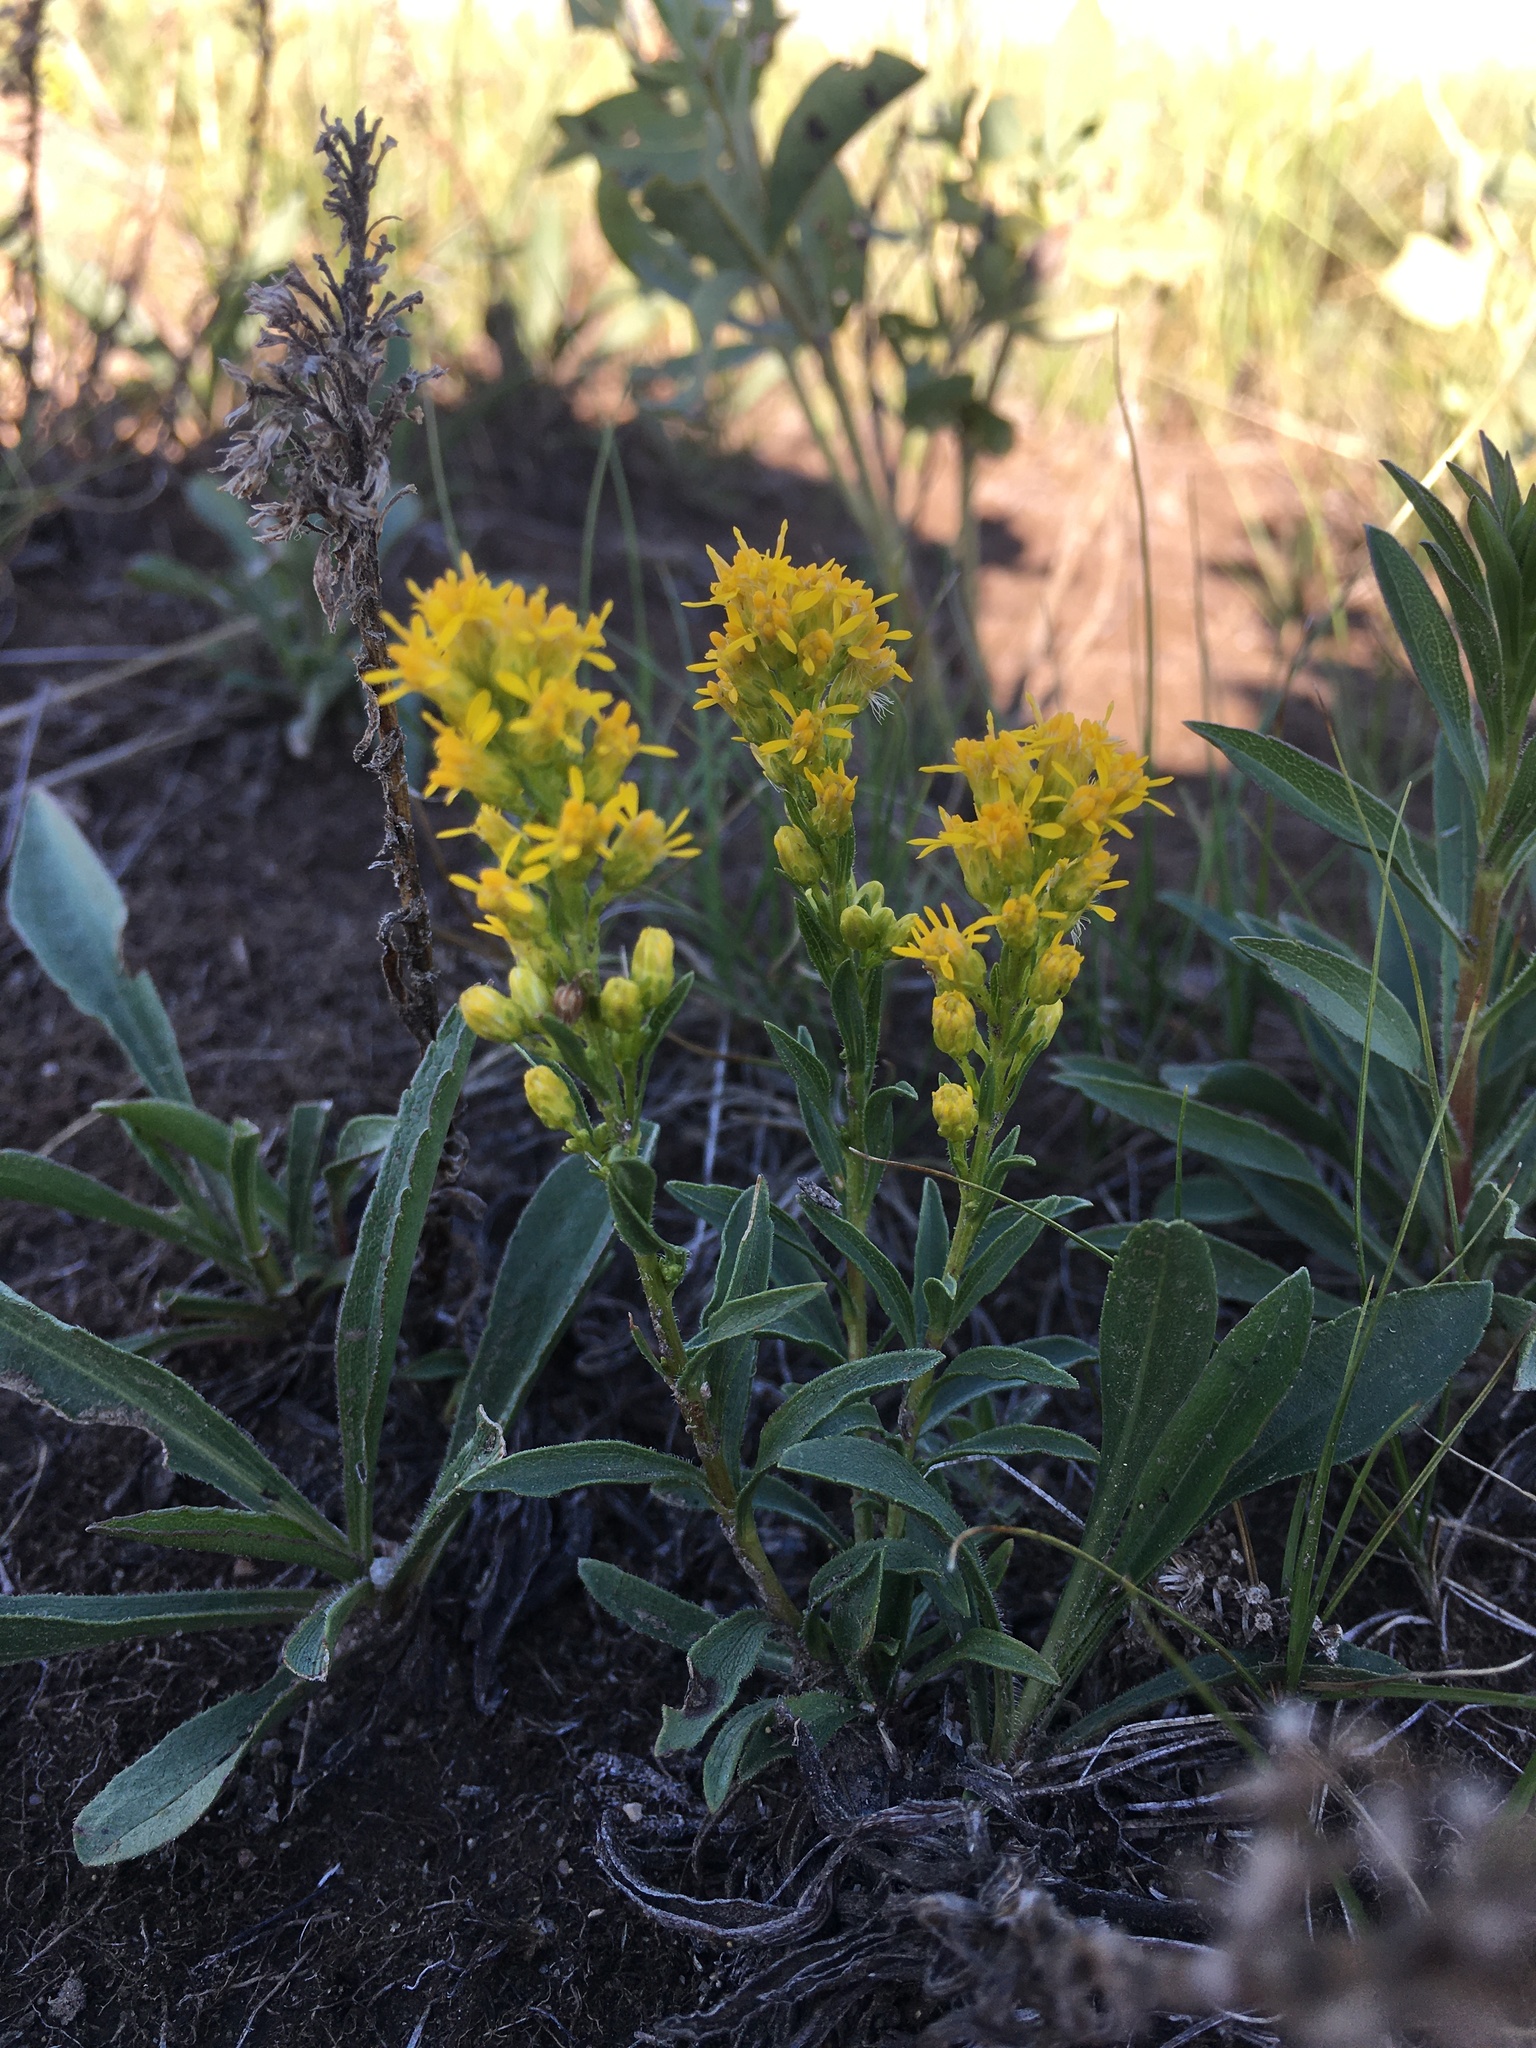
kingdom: Plantae
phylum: Tracheophyta
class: Magnoliopsida
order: Asterales
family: Asteraceae
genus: Solidago
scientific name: Solidago missouriensis
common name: Prairie goldenrod
